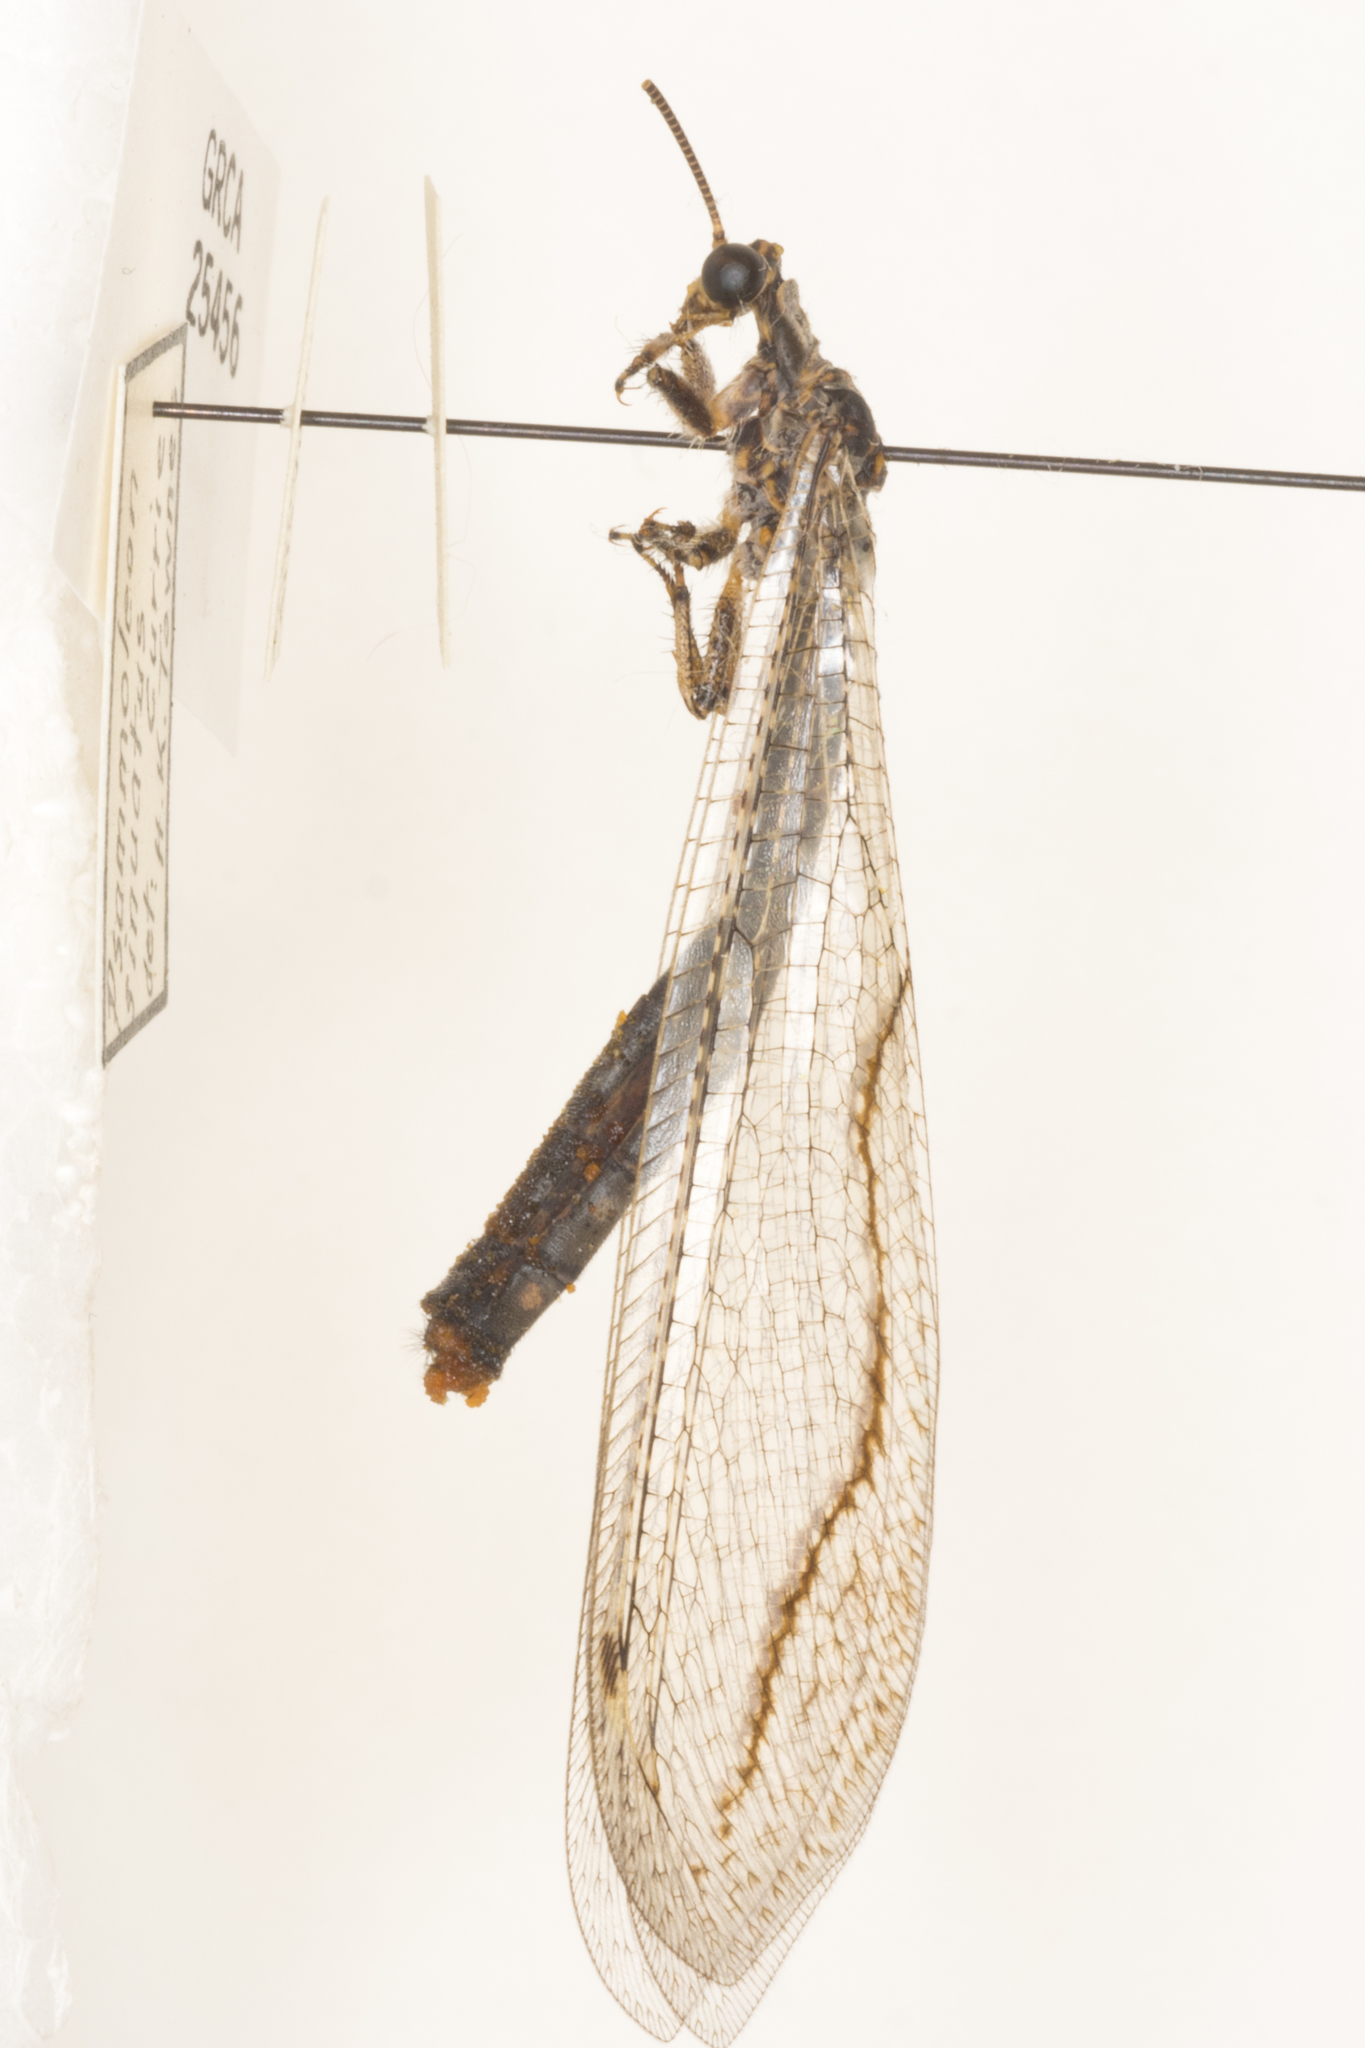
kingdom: Animalia
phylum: Arthropoda
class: Insecta
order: Neuroptera
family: Myrmeleontidae
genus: Euptilon
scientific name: Euptilon sinuatum
